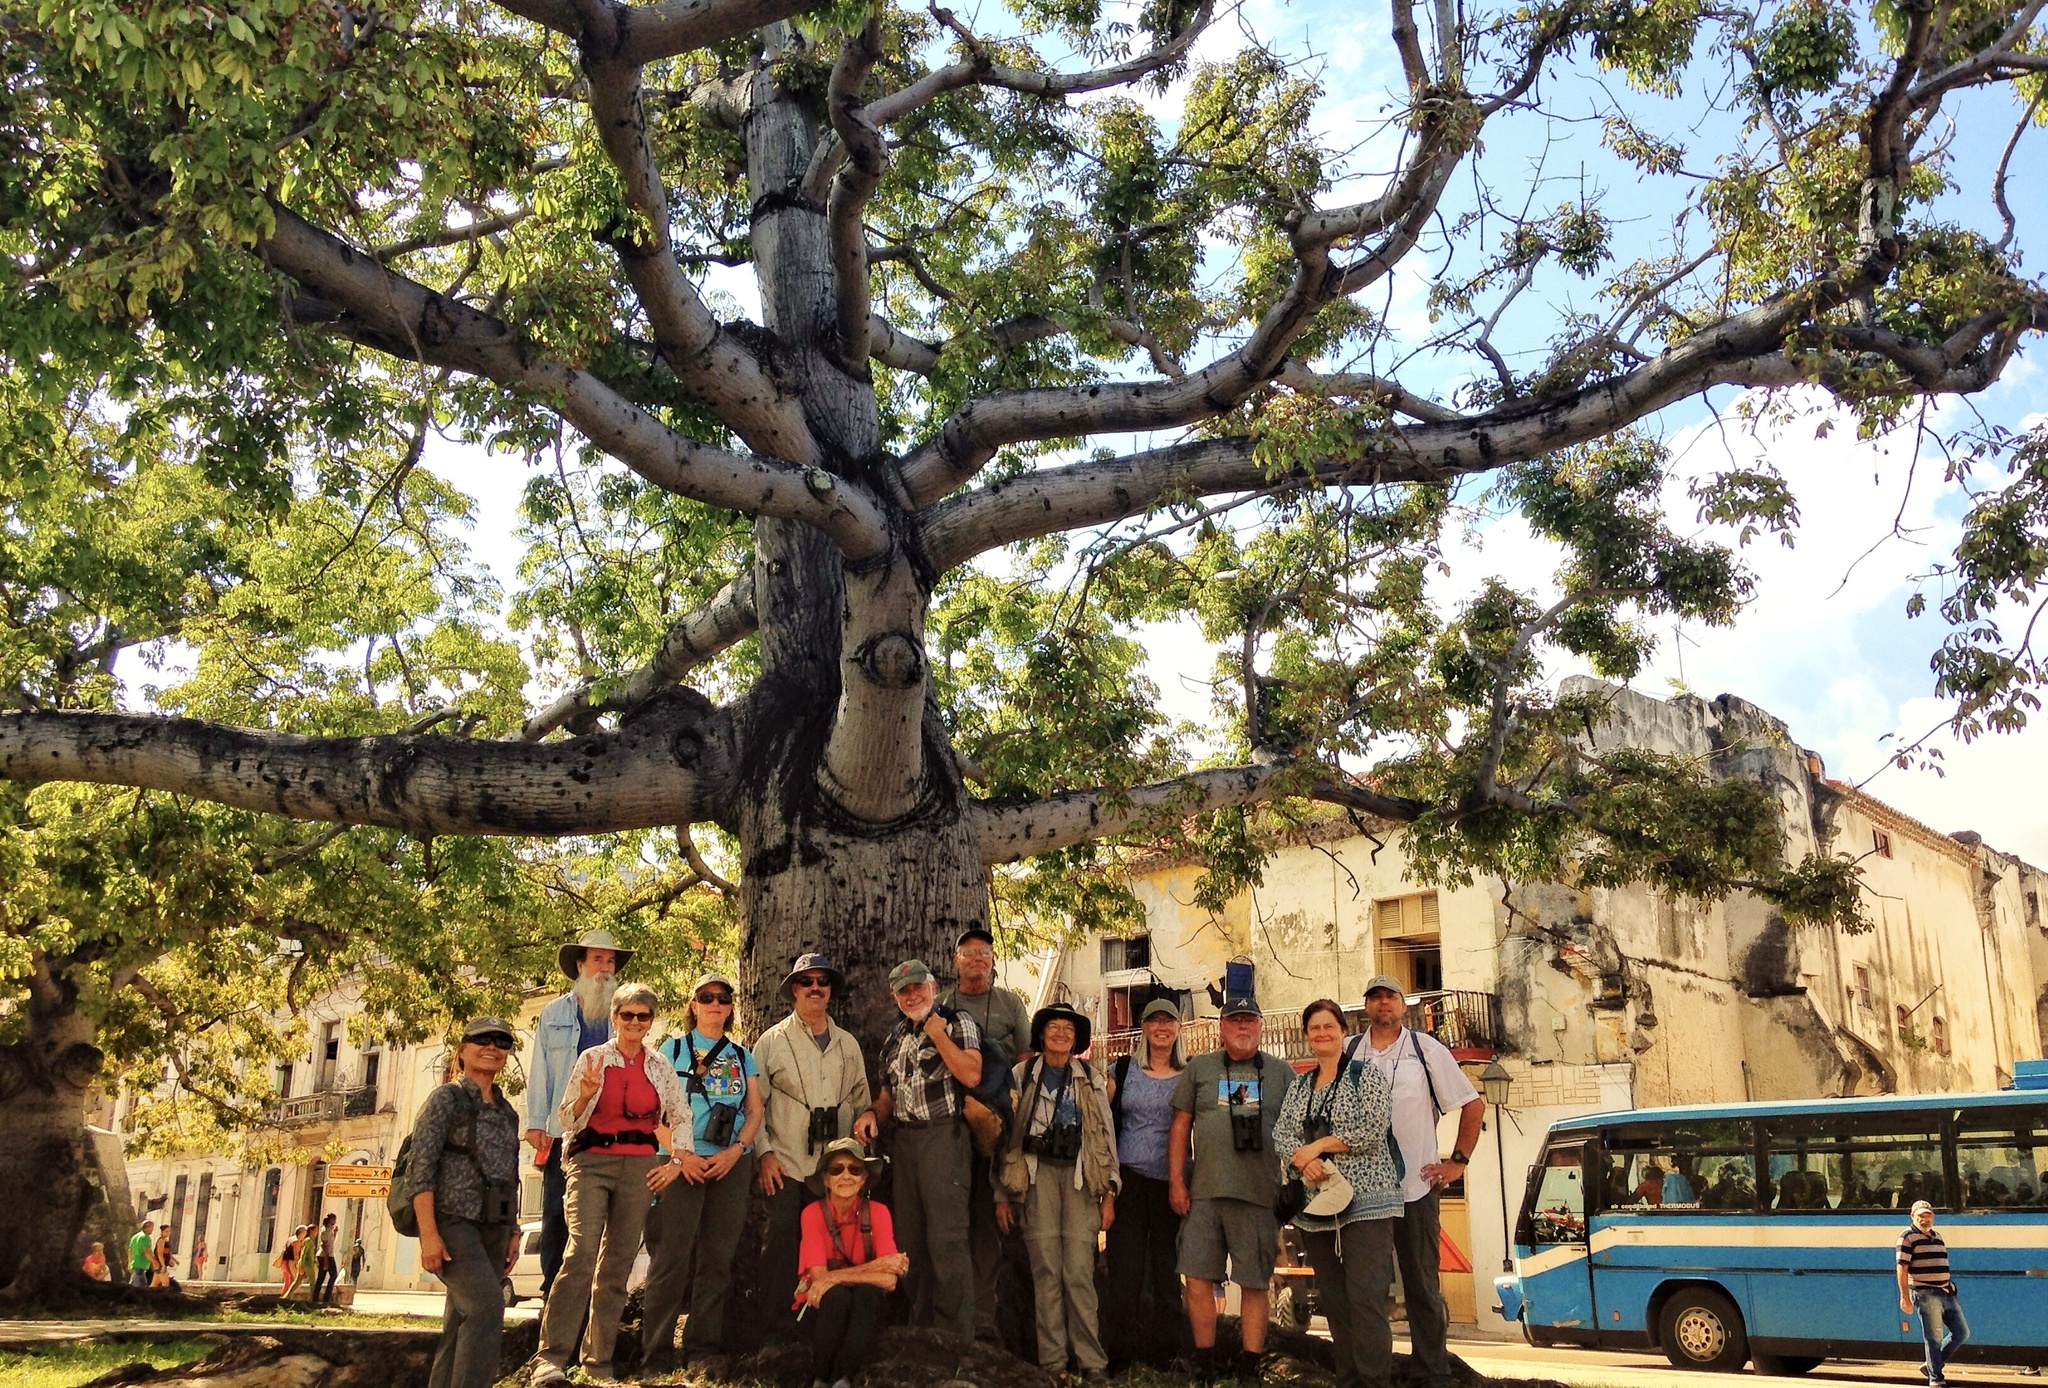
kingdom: Plantae
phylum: Tracheophyta
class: Magnoliopsida
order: Malvales
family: Malvaceae
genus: Ceiba
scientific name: Ceiba pentandra
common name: Kapok
